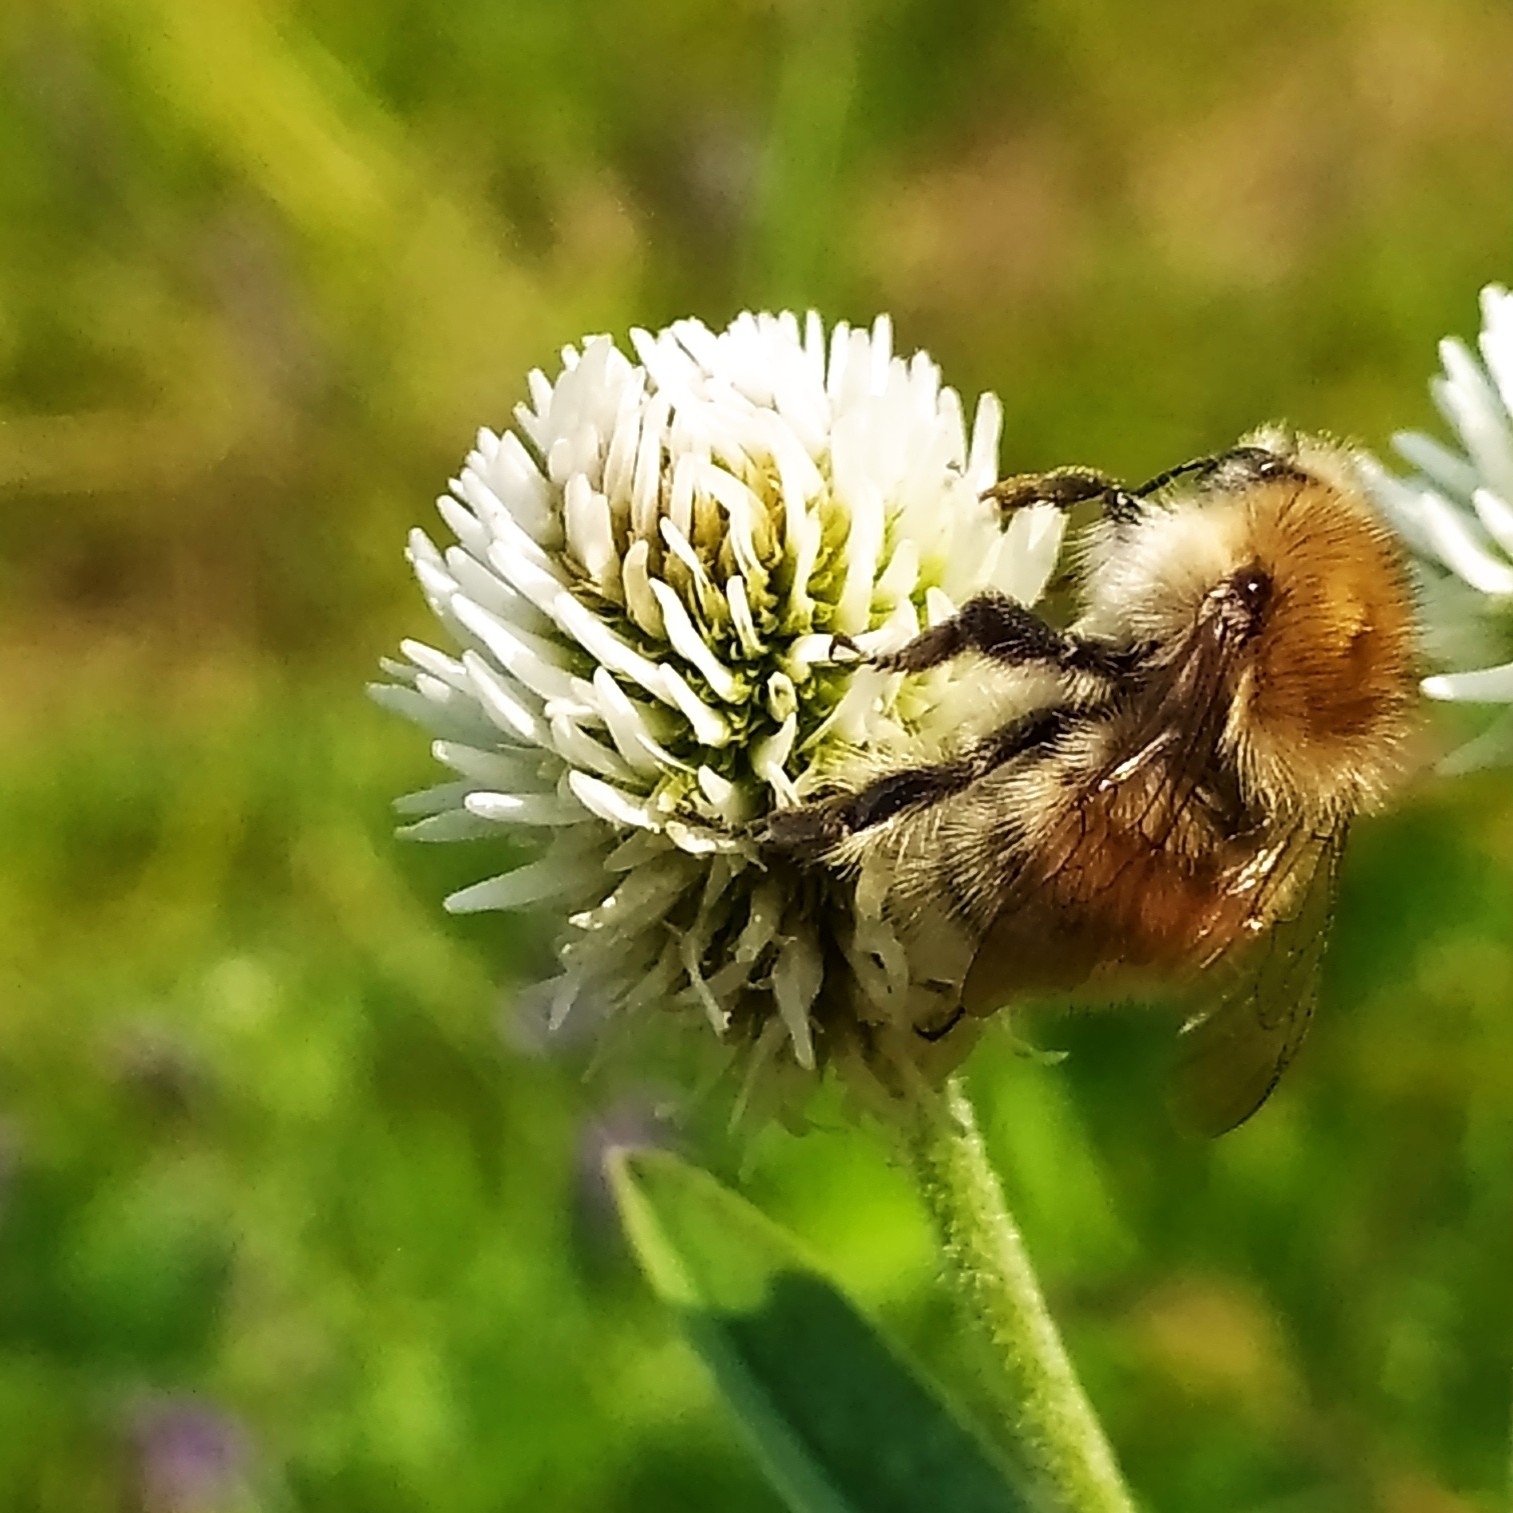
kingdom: Animalia
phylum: Arthropoda
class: Insecta
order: Hymenoptera
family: Apidae
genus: Bombus
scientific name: Bombus humilis
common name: Brown-banded carder-bee
